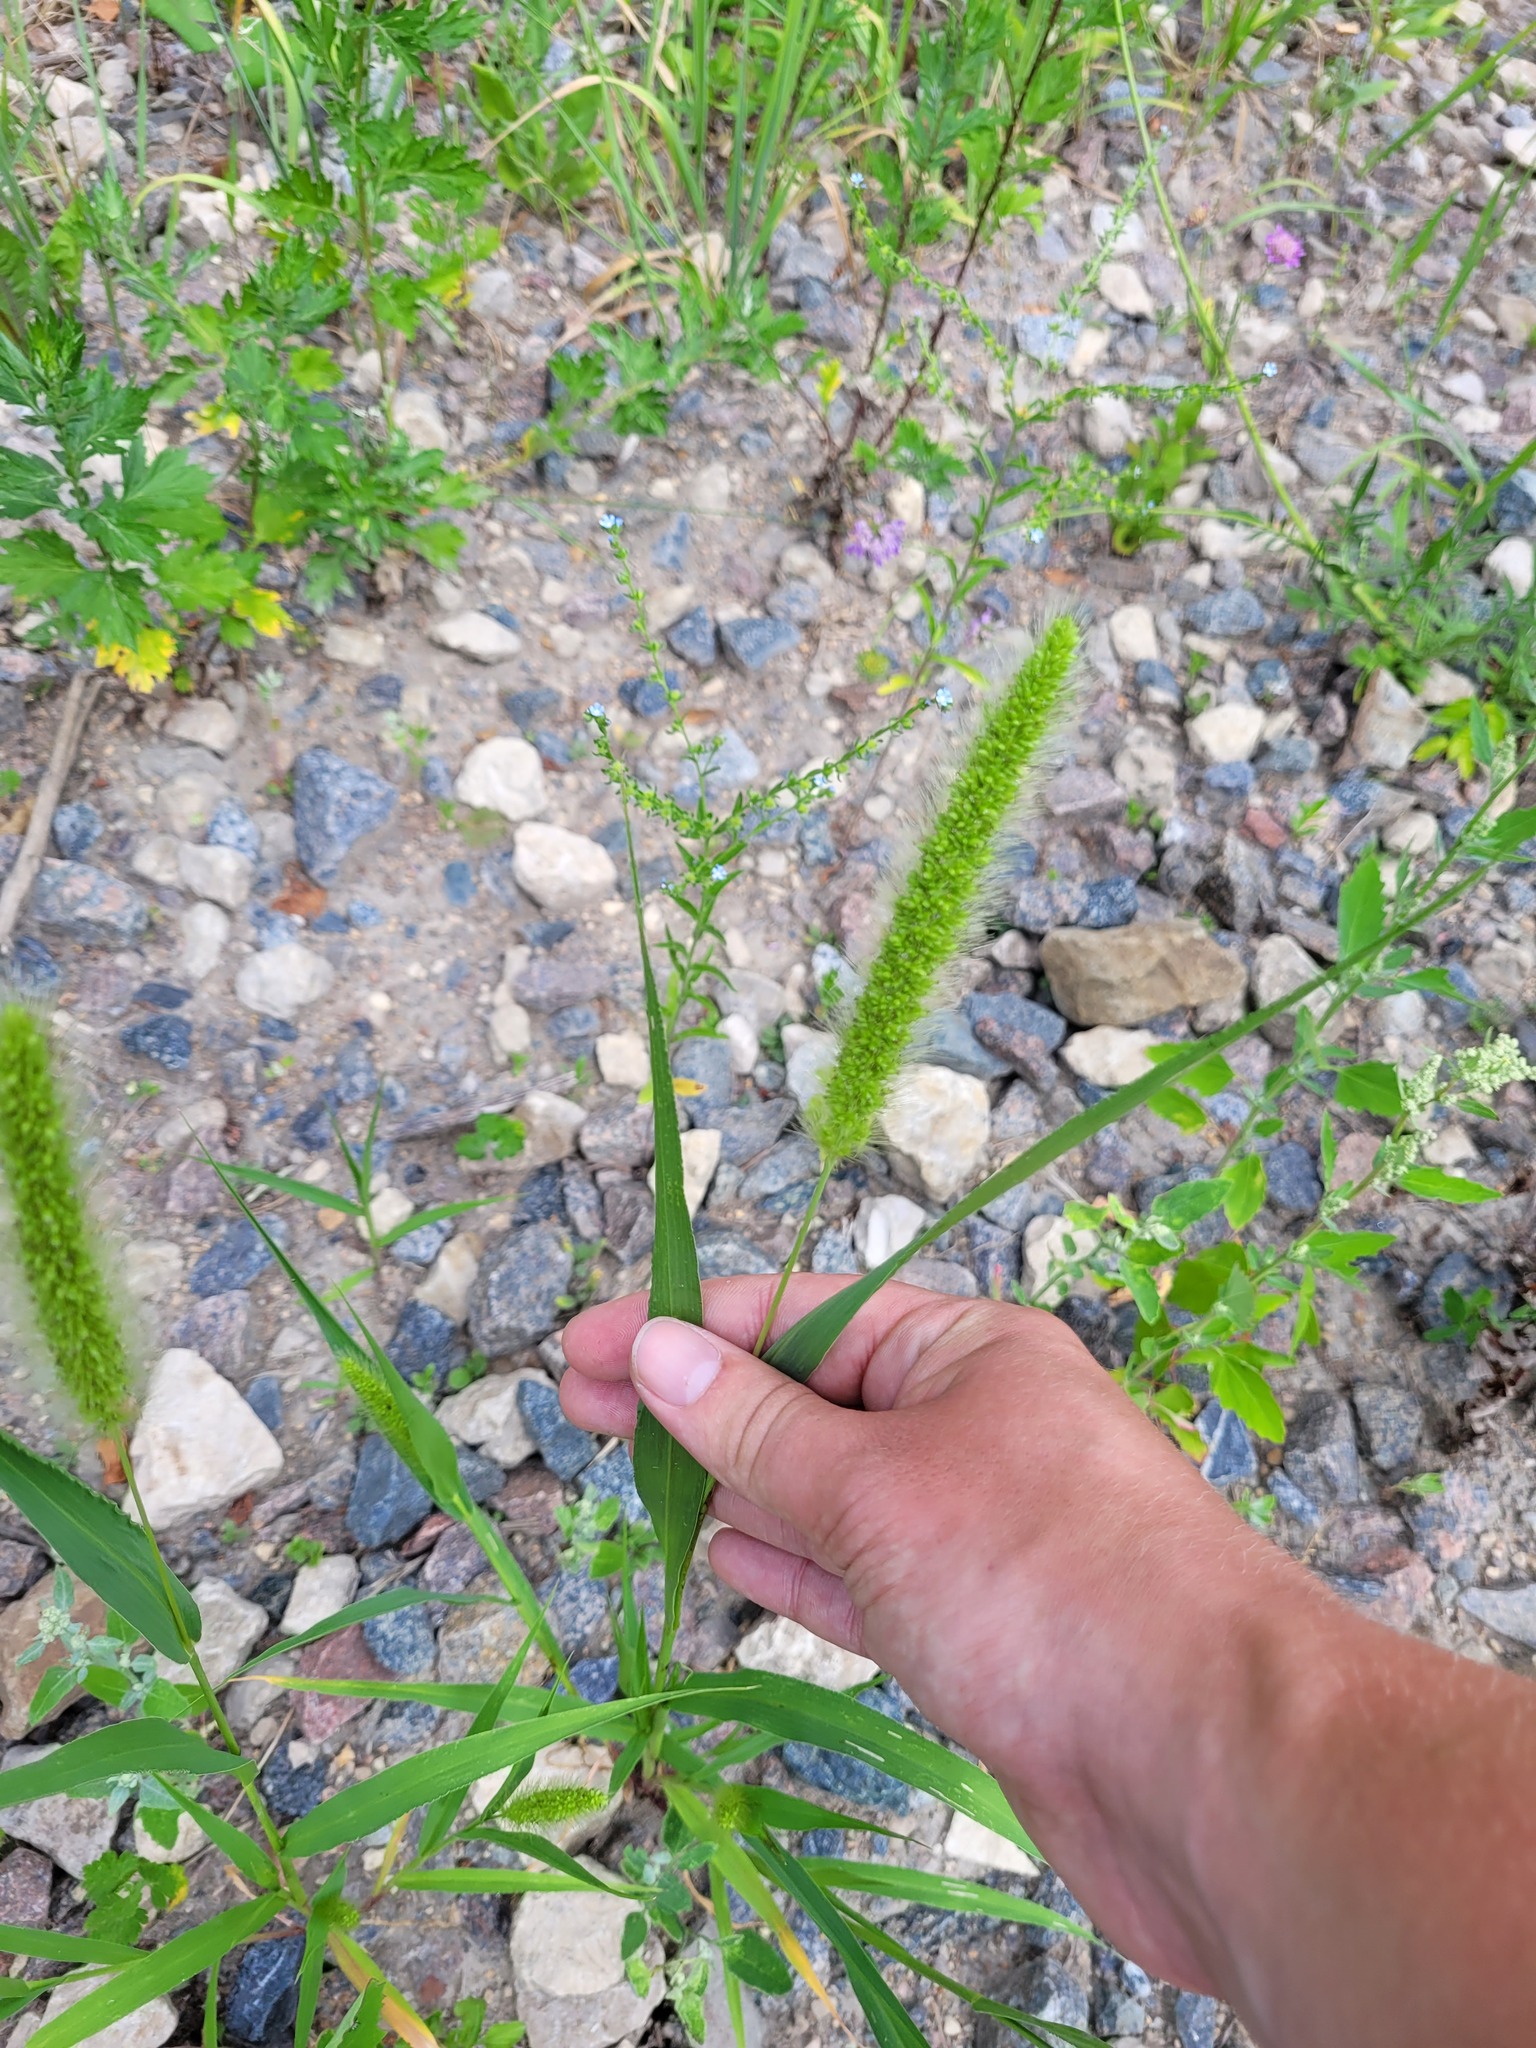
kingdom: Plantae
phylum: Tracheophyta
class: Liliopsida
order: Poales
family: Poaceae
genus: Setaria
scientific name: Setaria viridis
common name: Green bristlegrass
